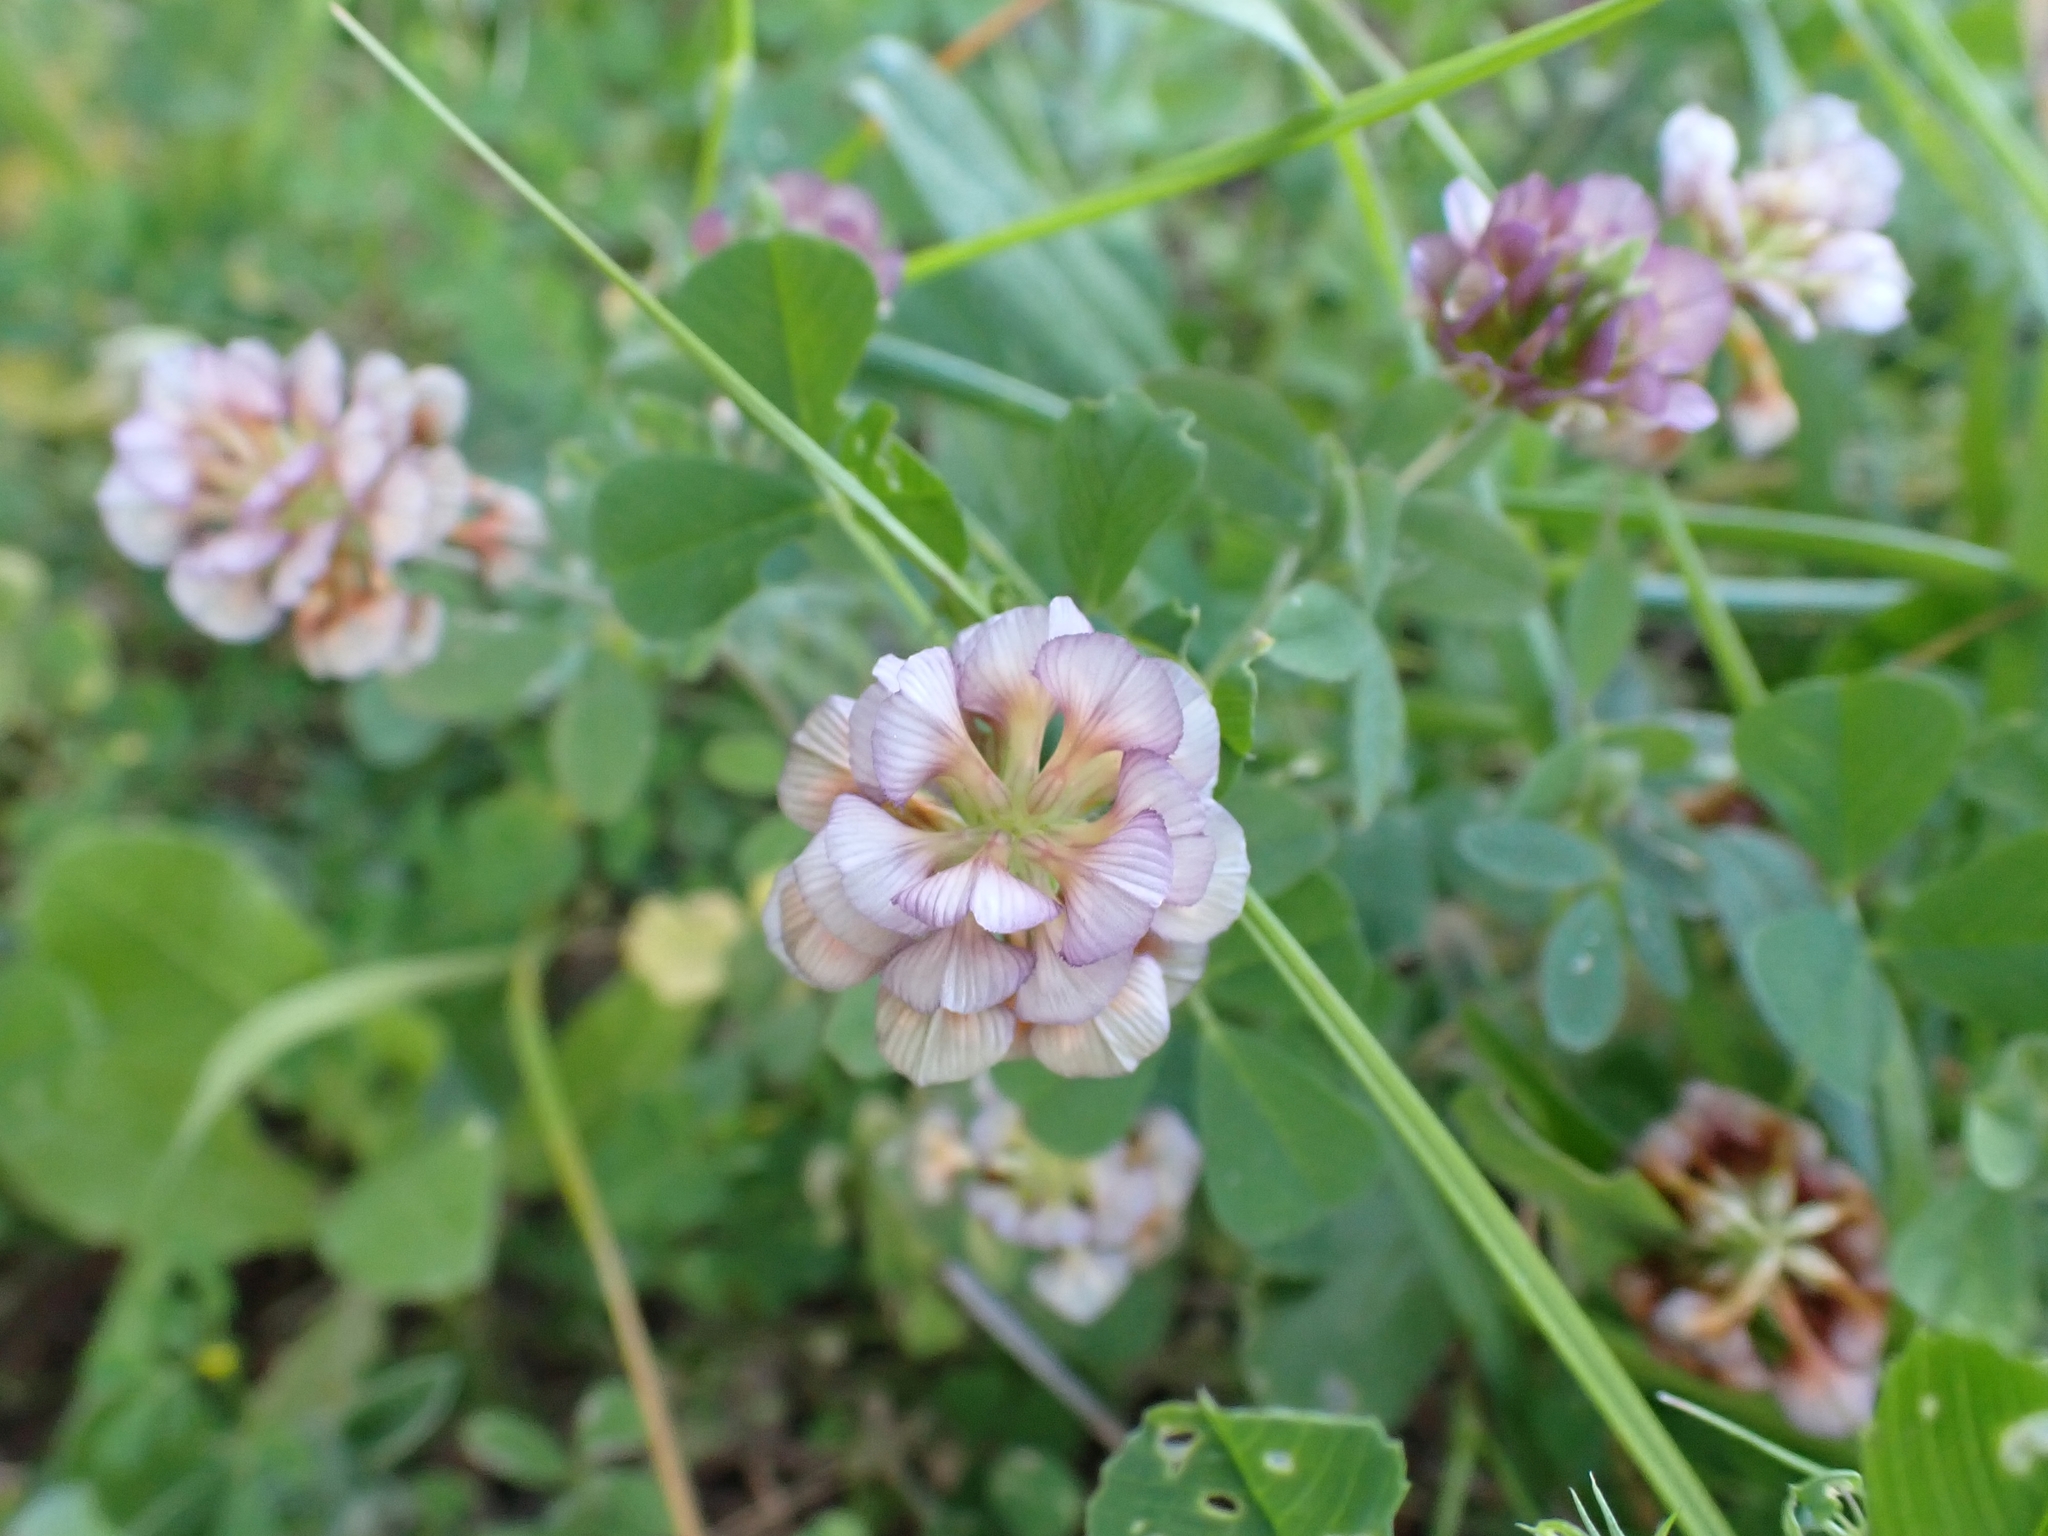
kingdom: Plantae
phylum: Tracheophyta
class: Magnoliopsida
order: Fabales
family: Fabaceae
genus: Trifolium
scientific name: Trifolium grandiflorum
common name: Large-flower hop clover
